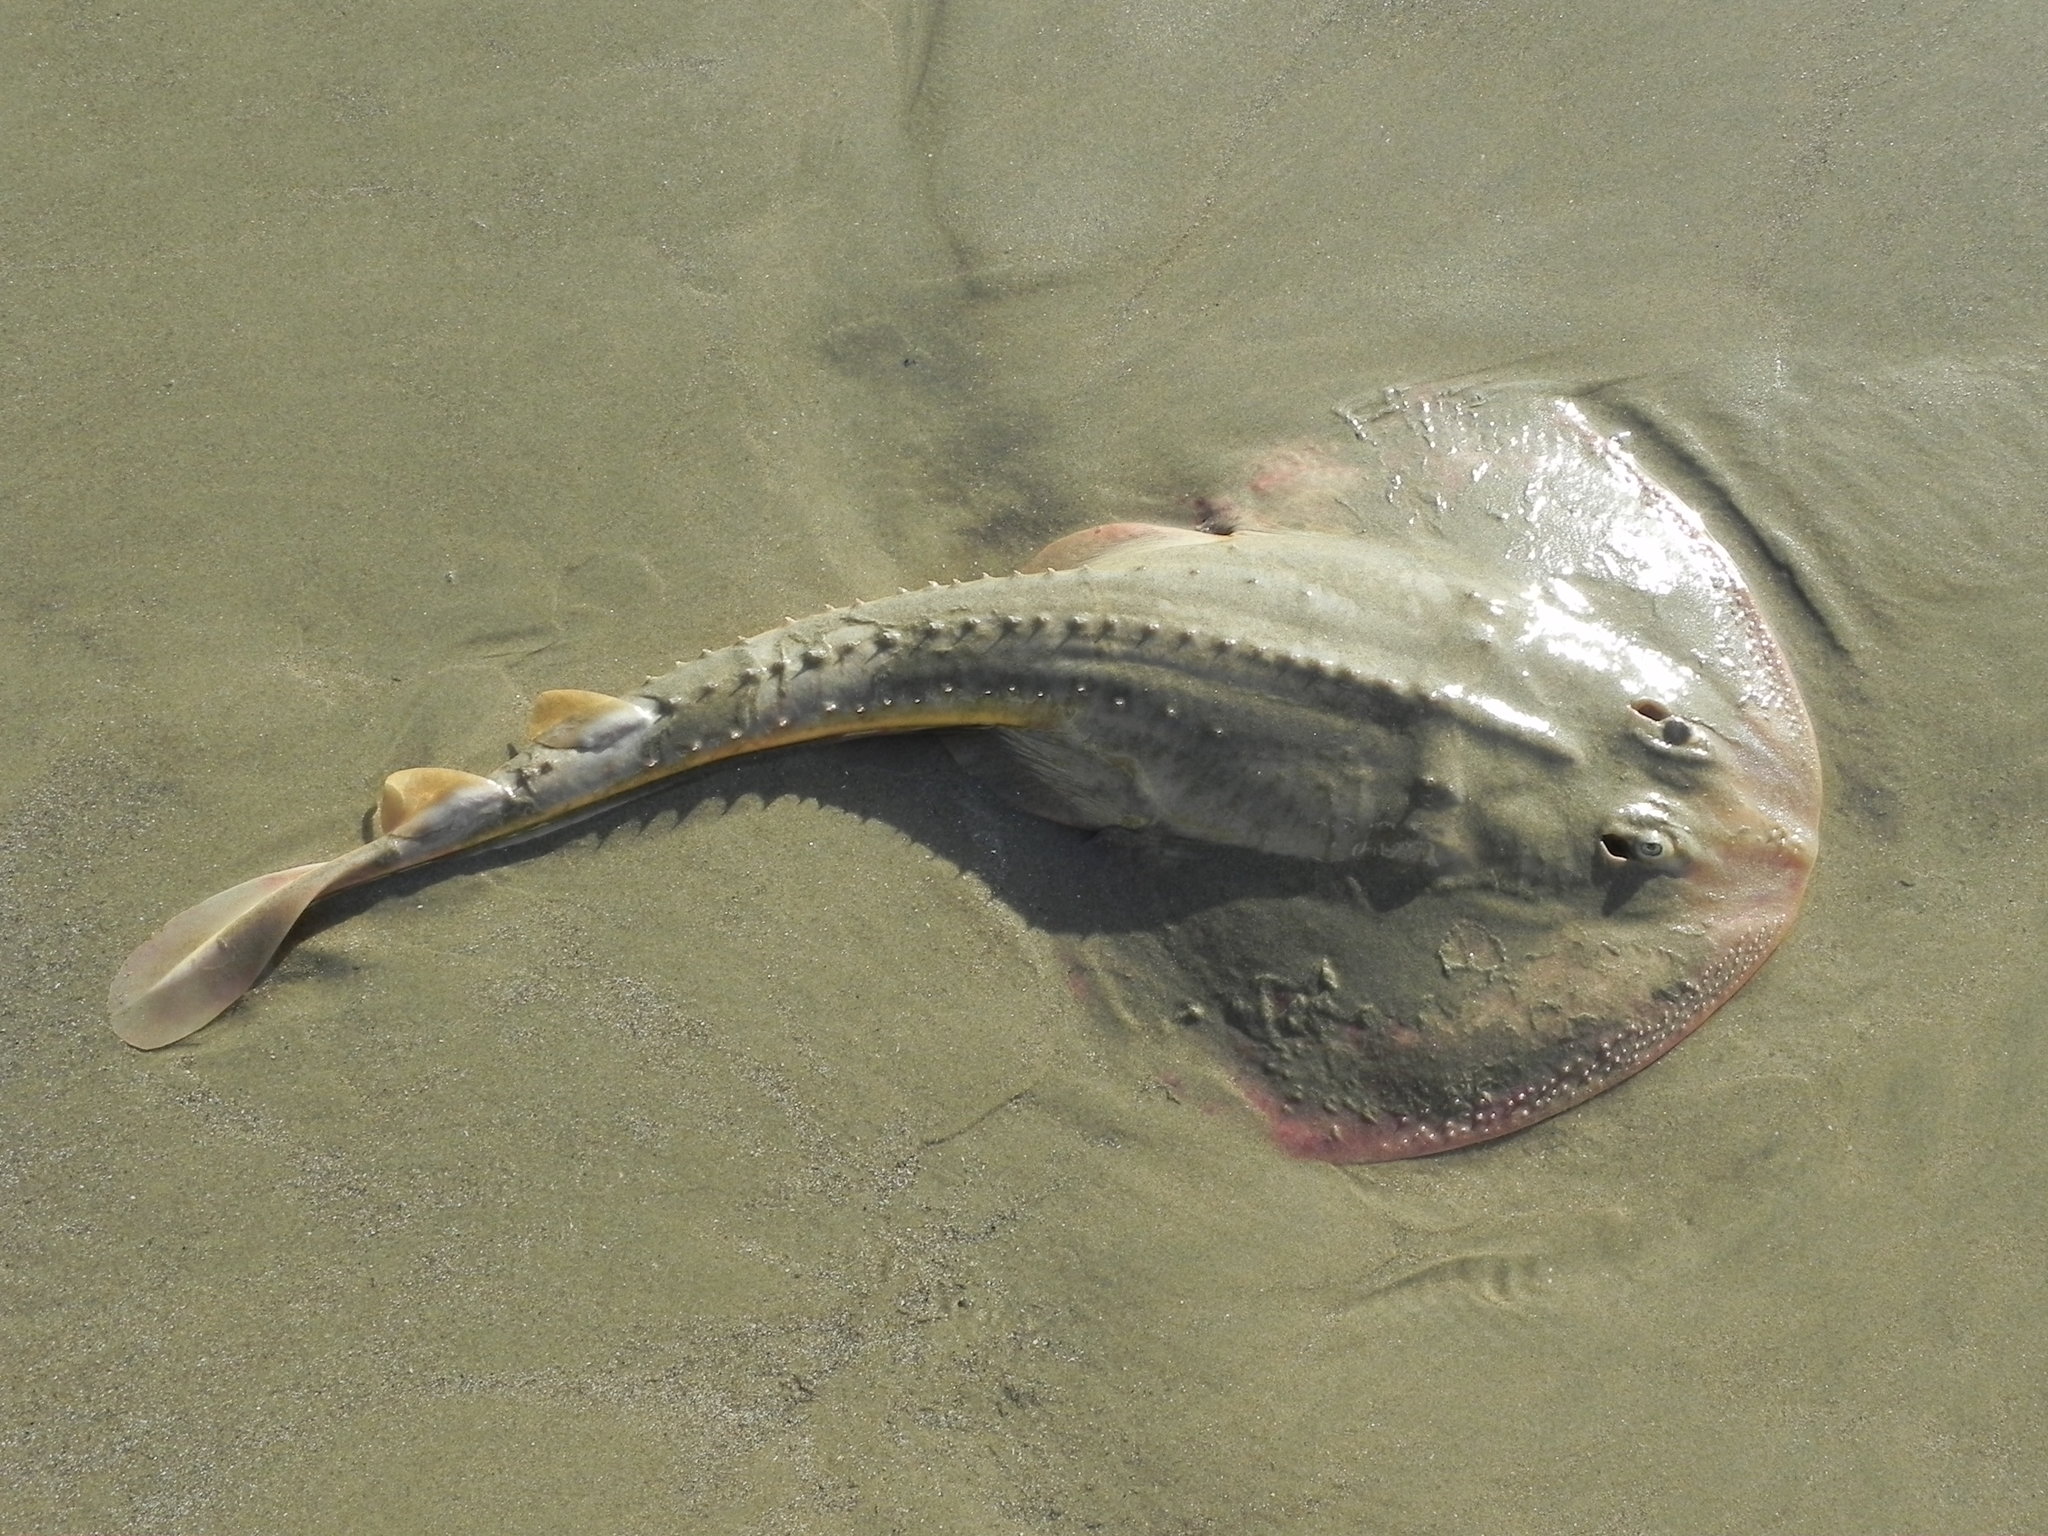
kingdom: Animalia
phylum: Chordata
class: Elasmobranchii
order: Rhinopristiformes
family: Rhinobatidae
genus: Platyrhinoidis
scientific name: Platyrhinoidis triseriata
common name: Thornback
